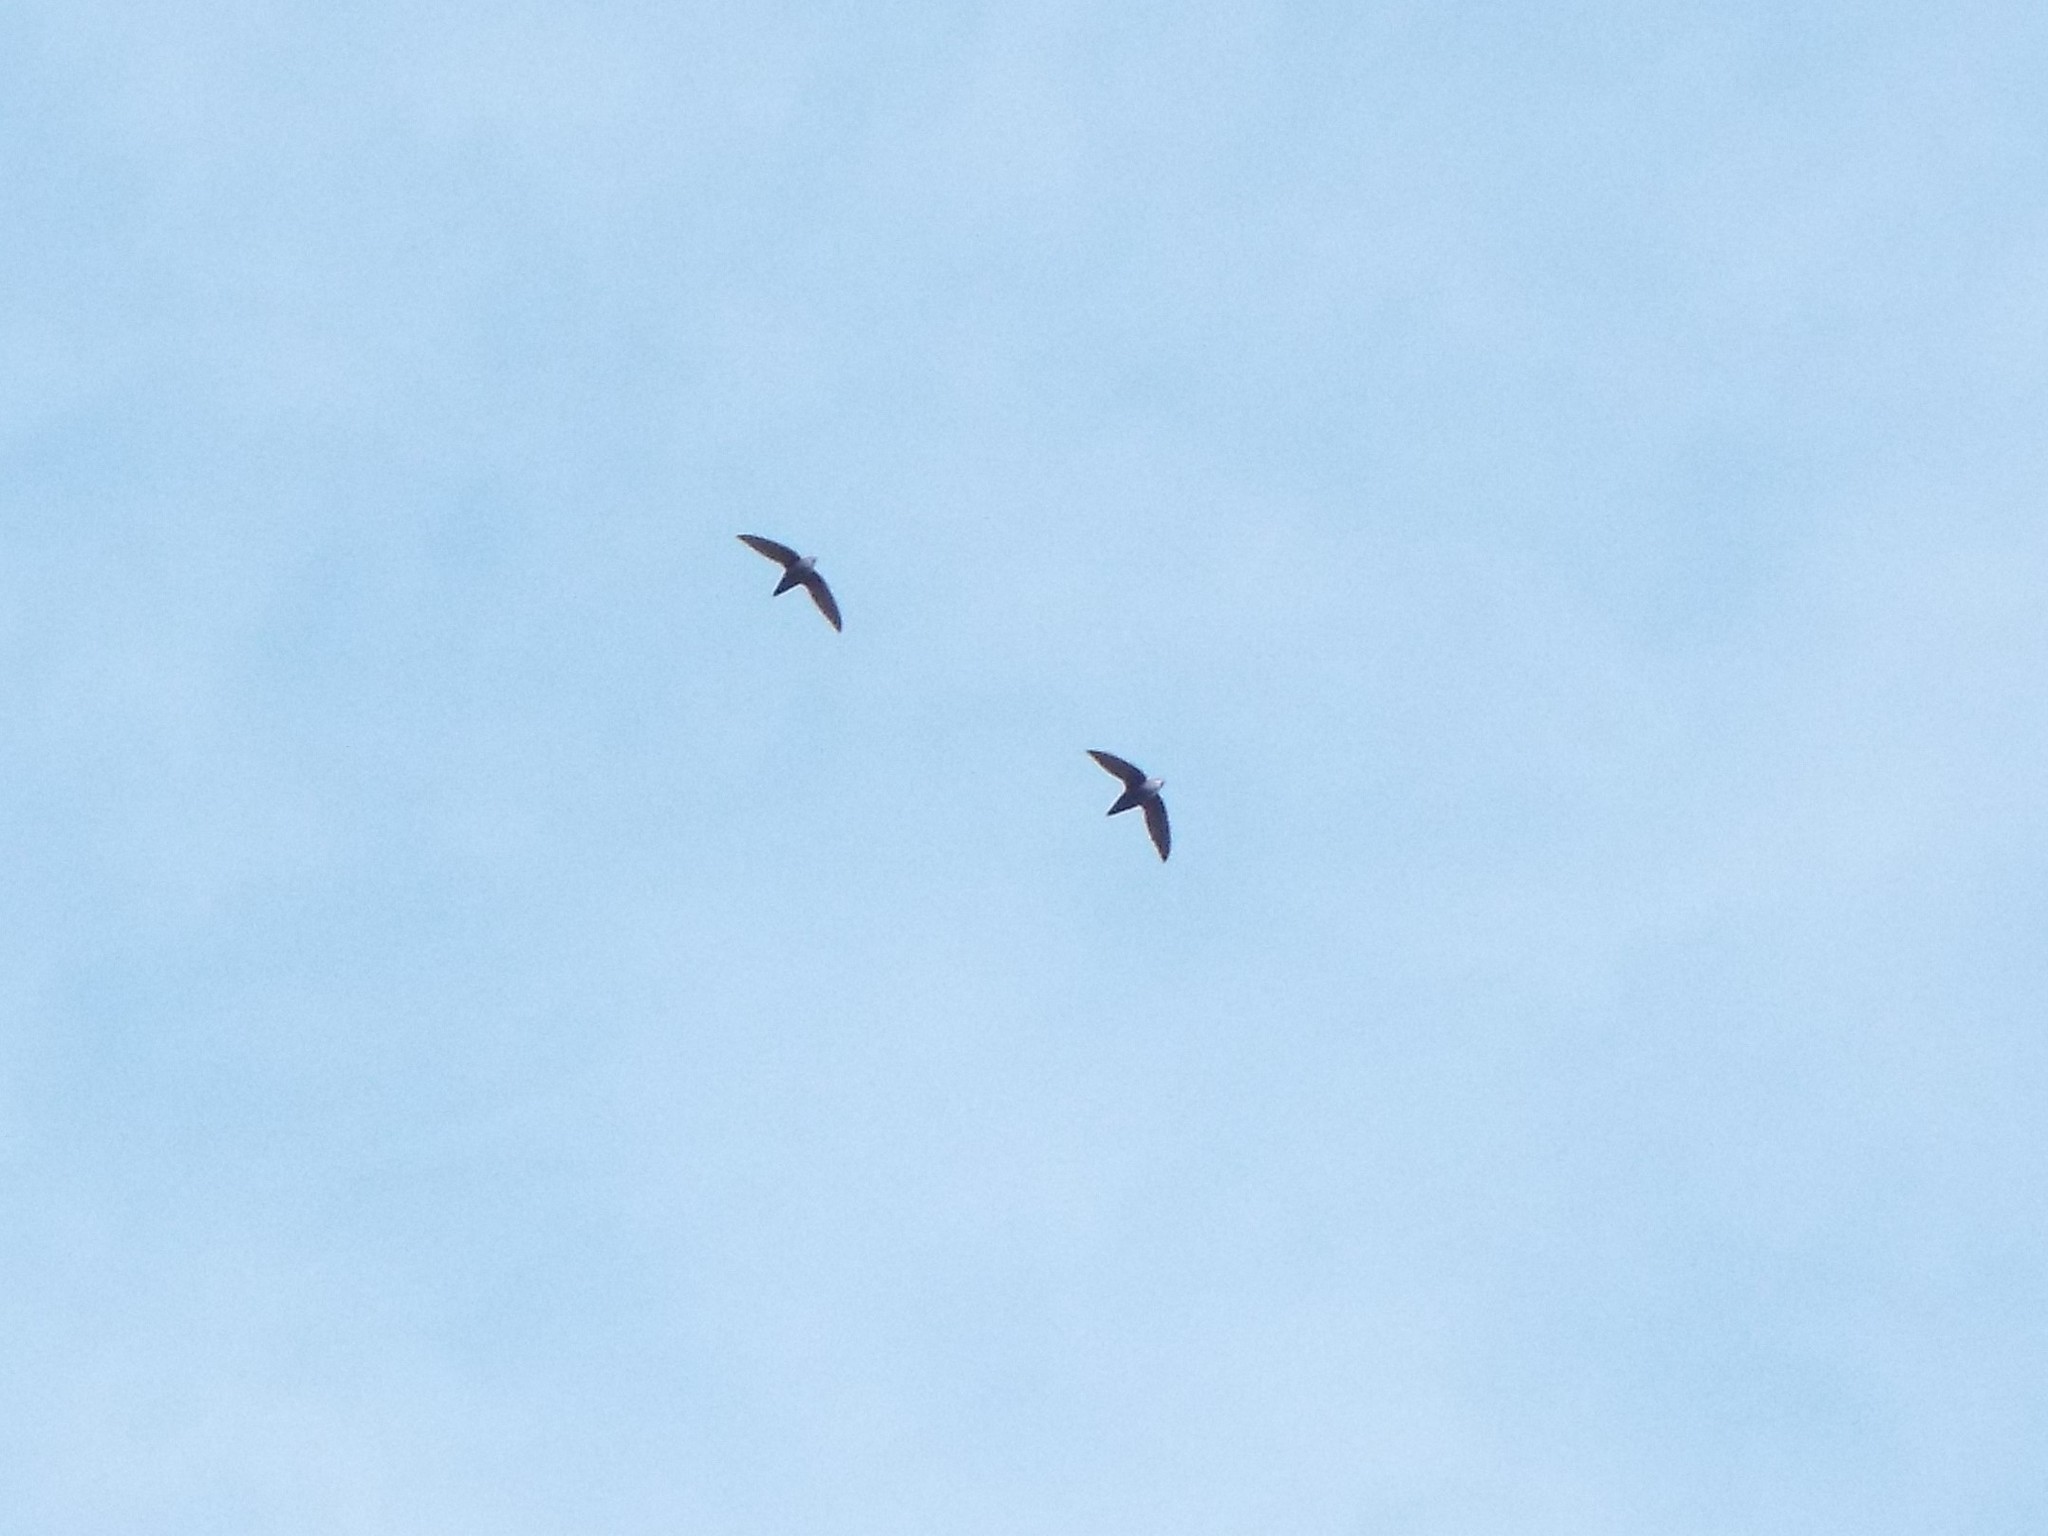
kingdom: Animalia
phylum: Chordata
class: Aves
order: Apodiformes
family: Apodidae
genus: Chaetura
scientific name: Chaetura pelagica
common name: Chimney swift
